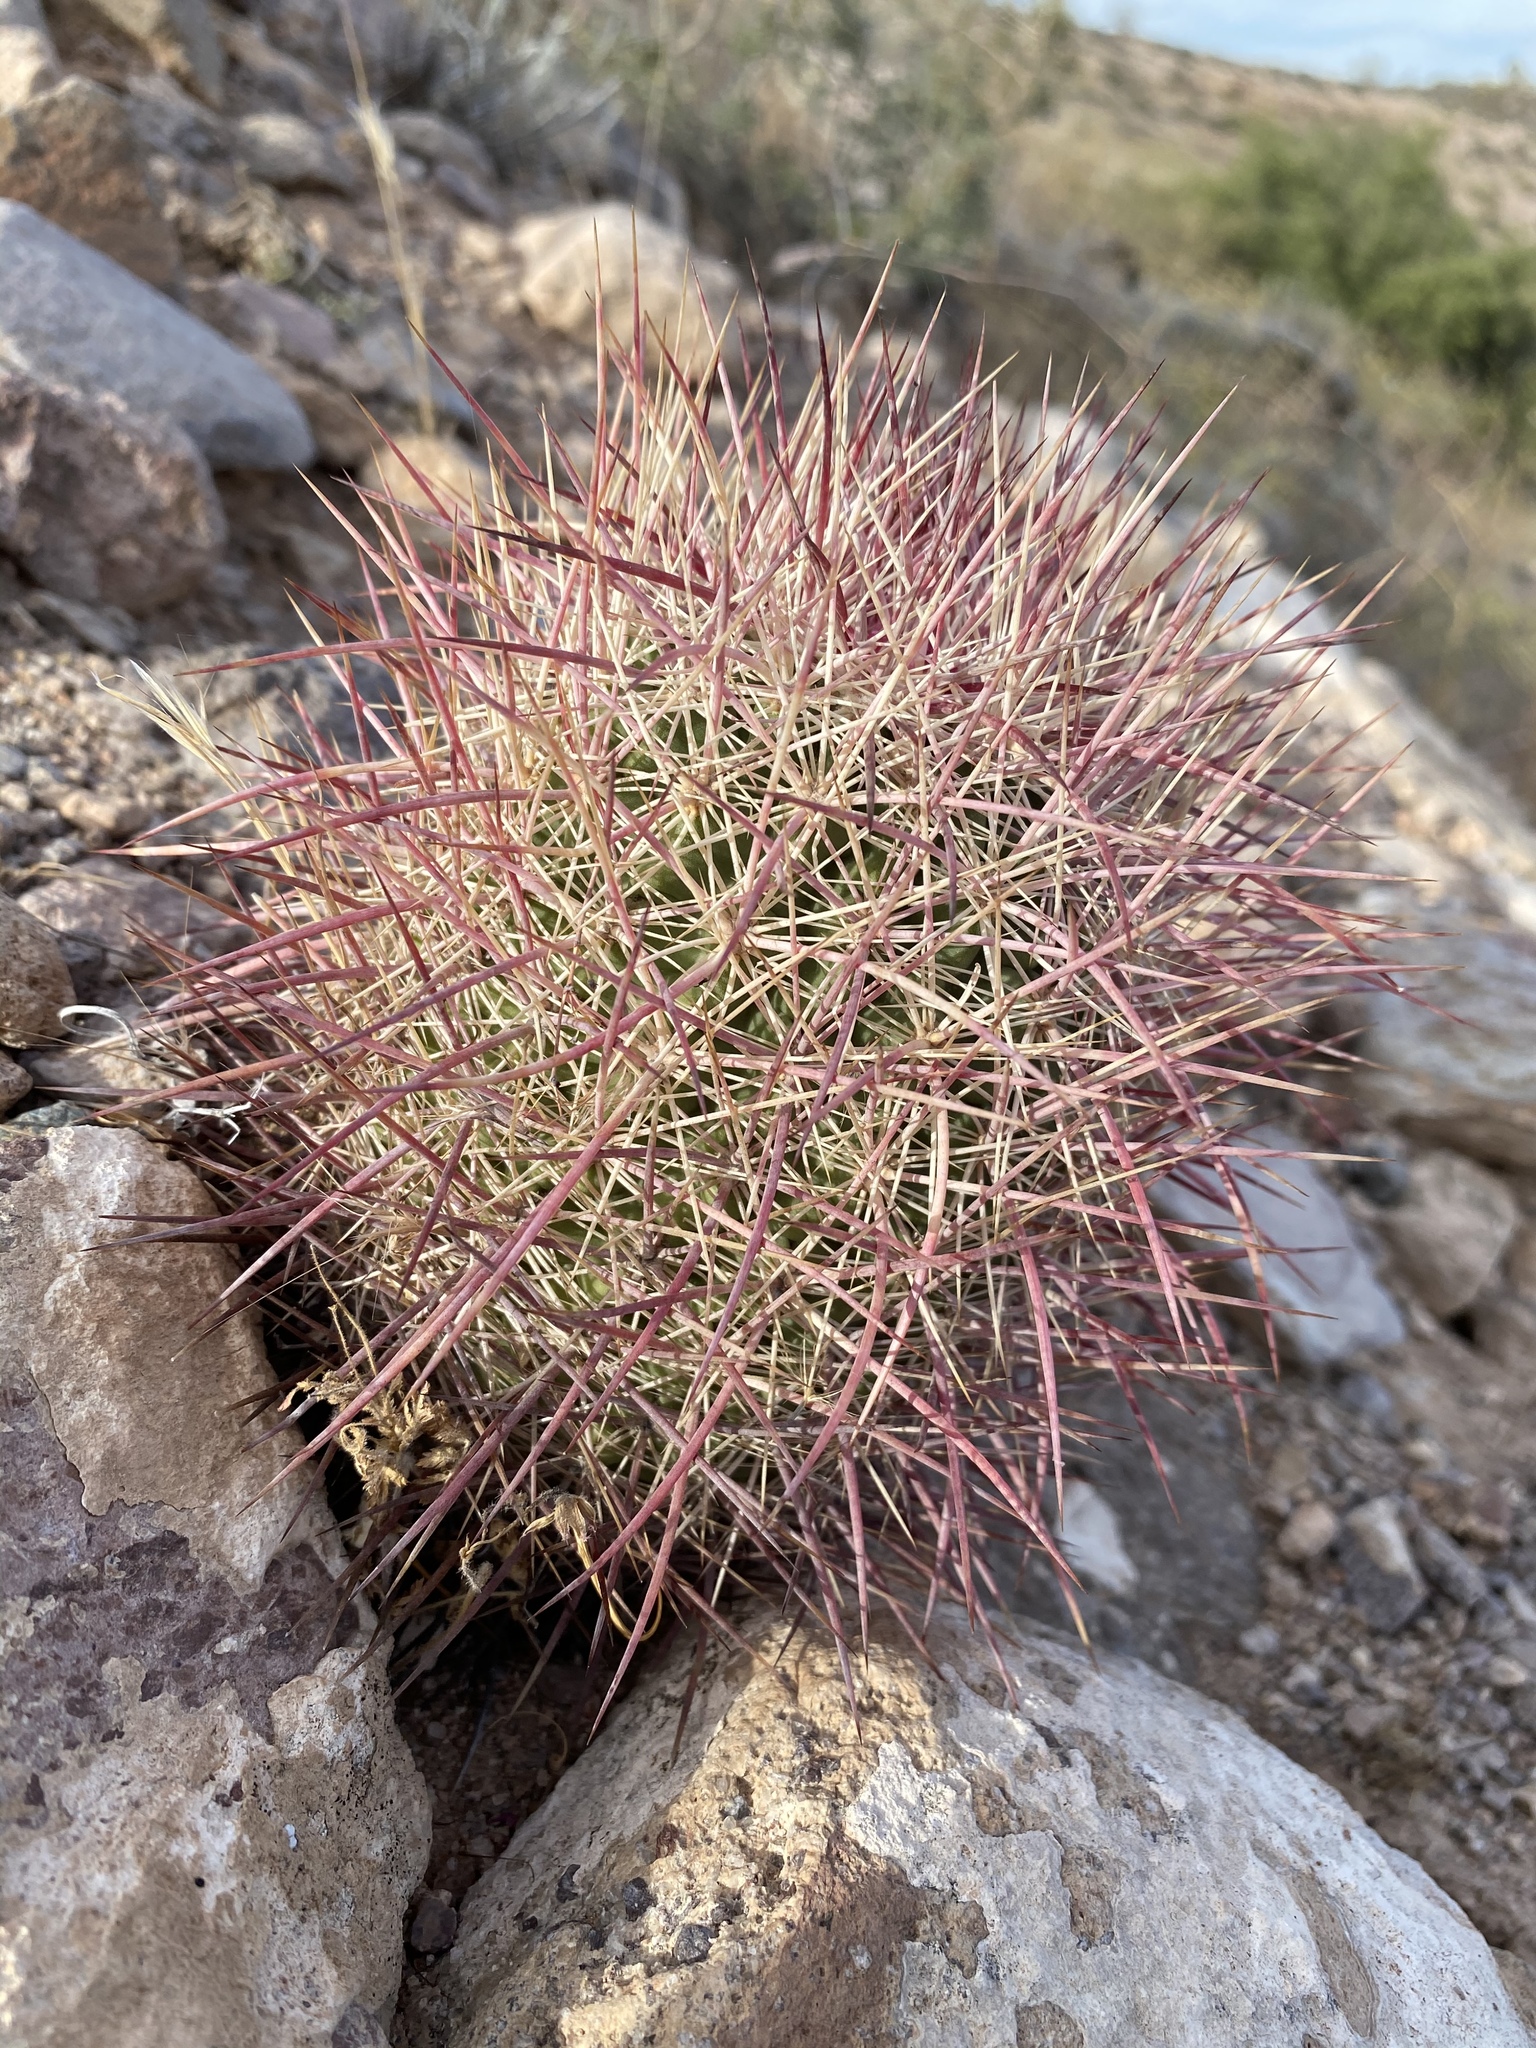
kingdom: Plantae
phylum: Tracheophyta
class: Magnoliopsida
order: Caryophyllales
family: Cactaceae
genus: Sclerocactus
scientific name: Sclerocactus johnsonii
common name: Eight-spine fishhook cactus
